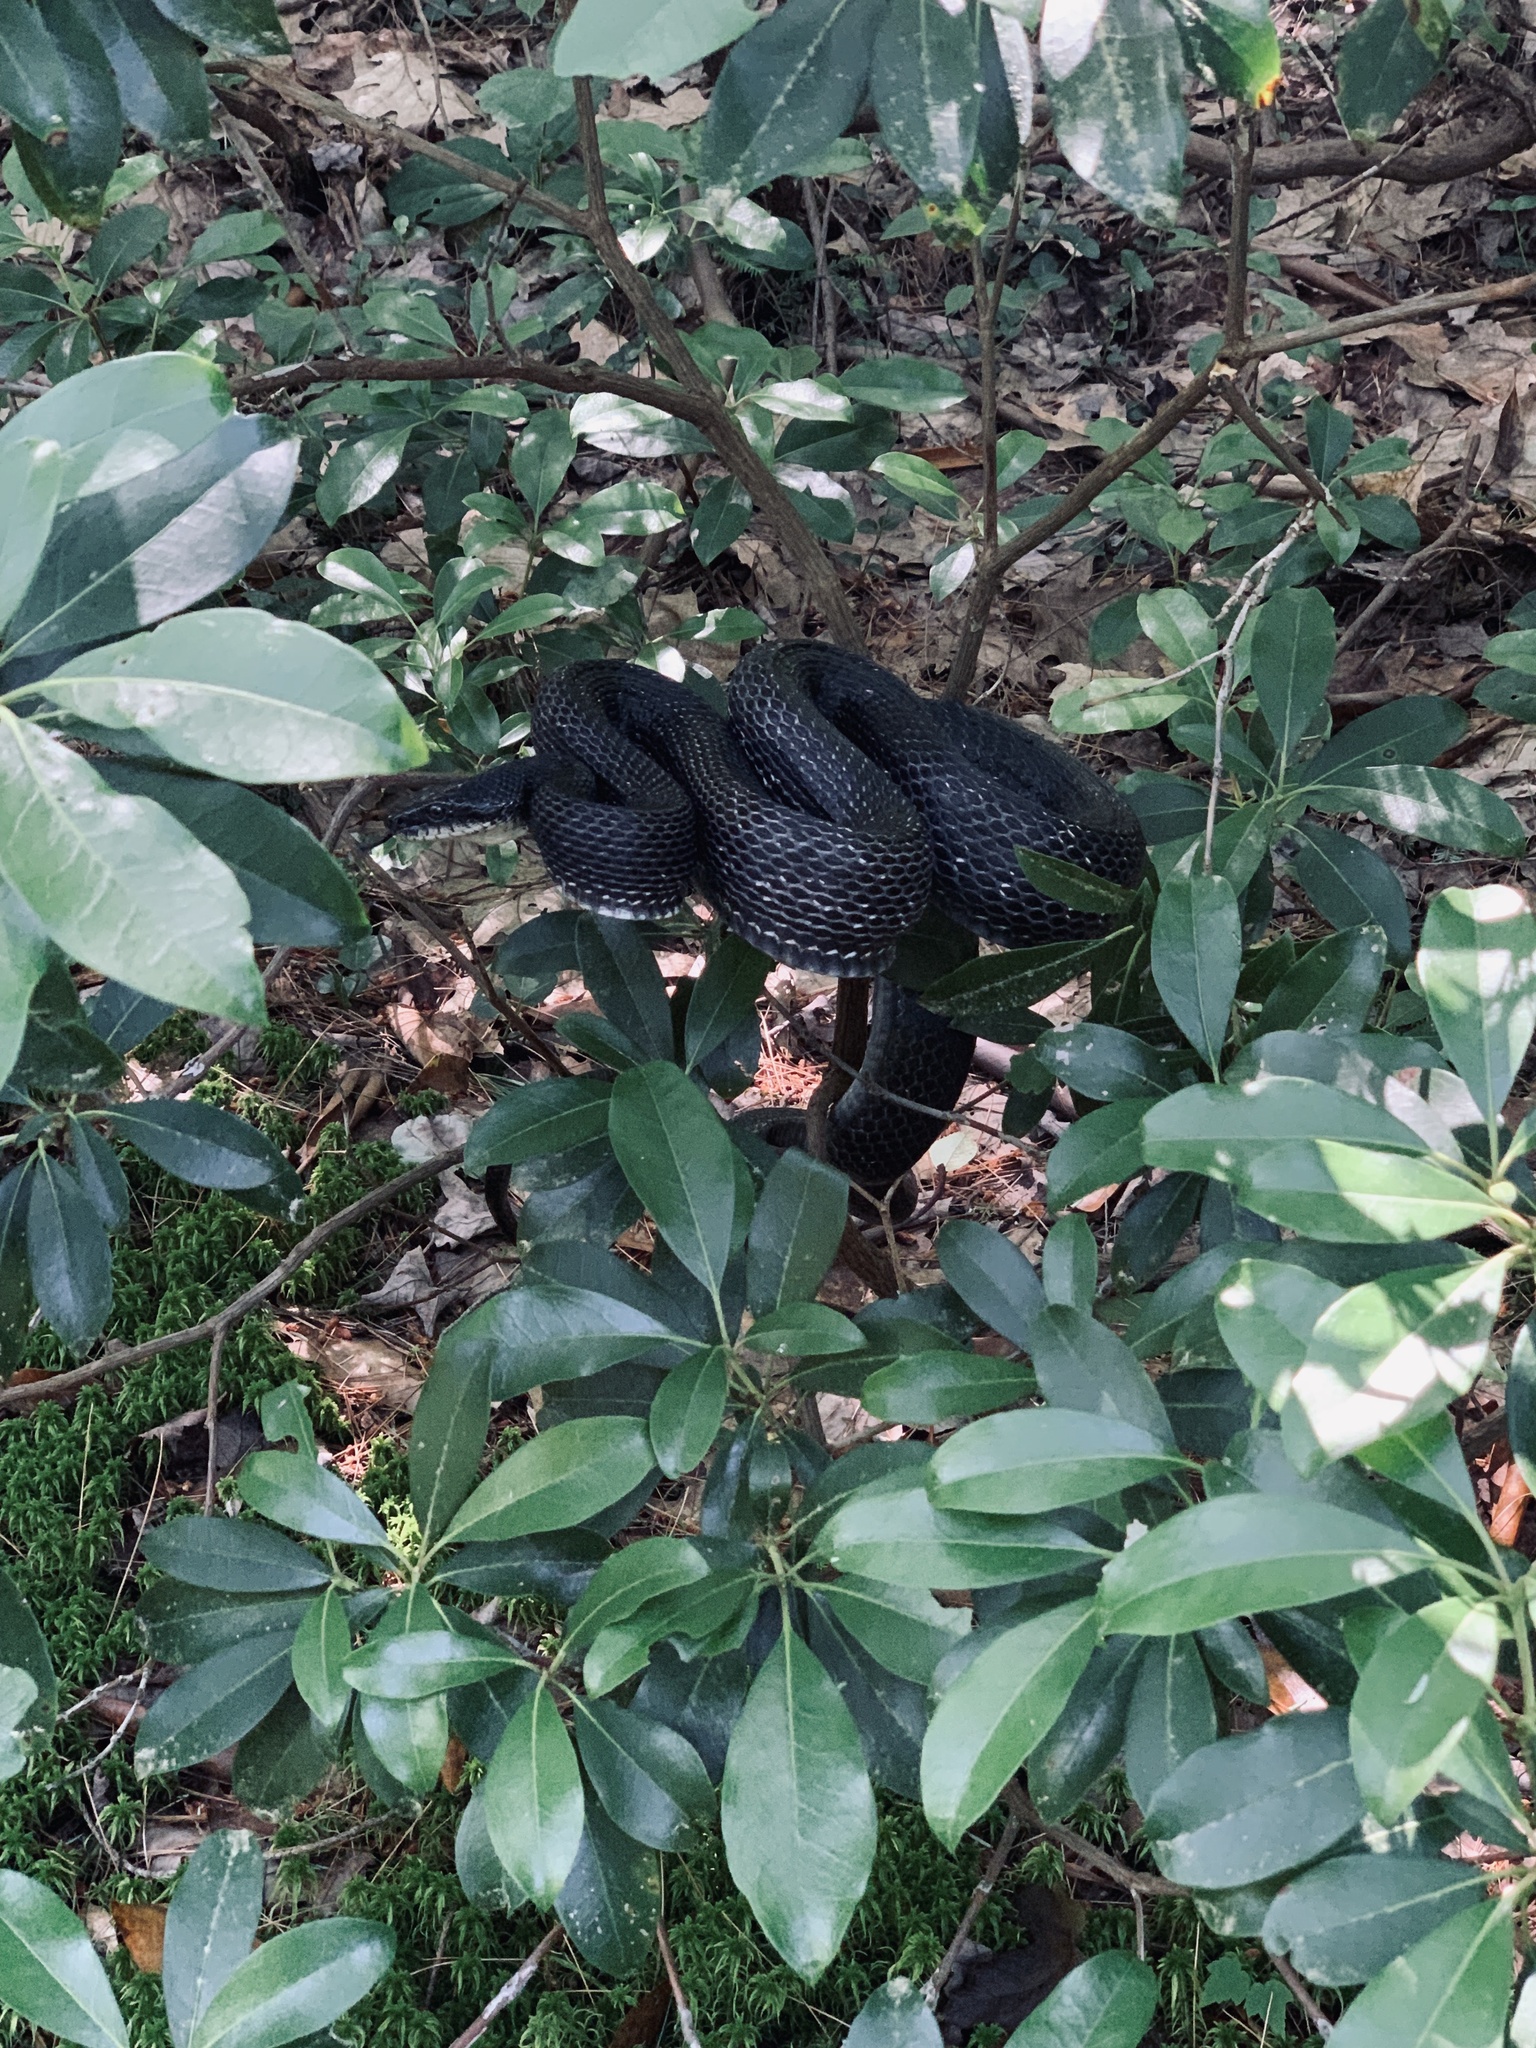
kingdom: Animalia
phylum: Chordata
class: Squamata
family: Colubridae
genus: Pantherophis
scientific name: Pantherophis alleghaniensis
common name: Eastern rat snake
